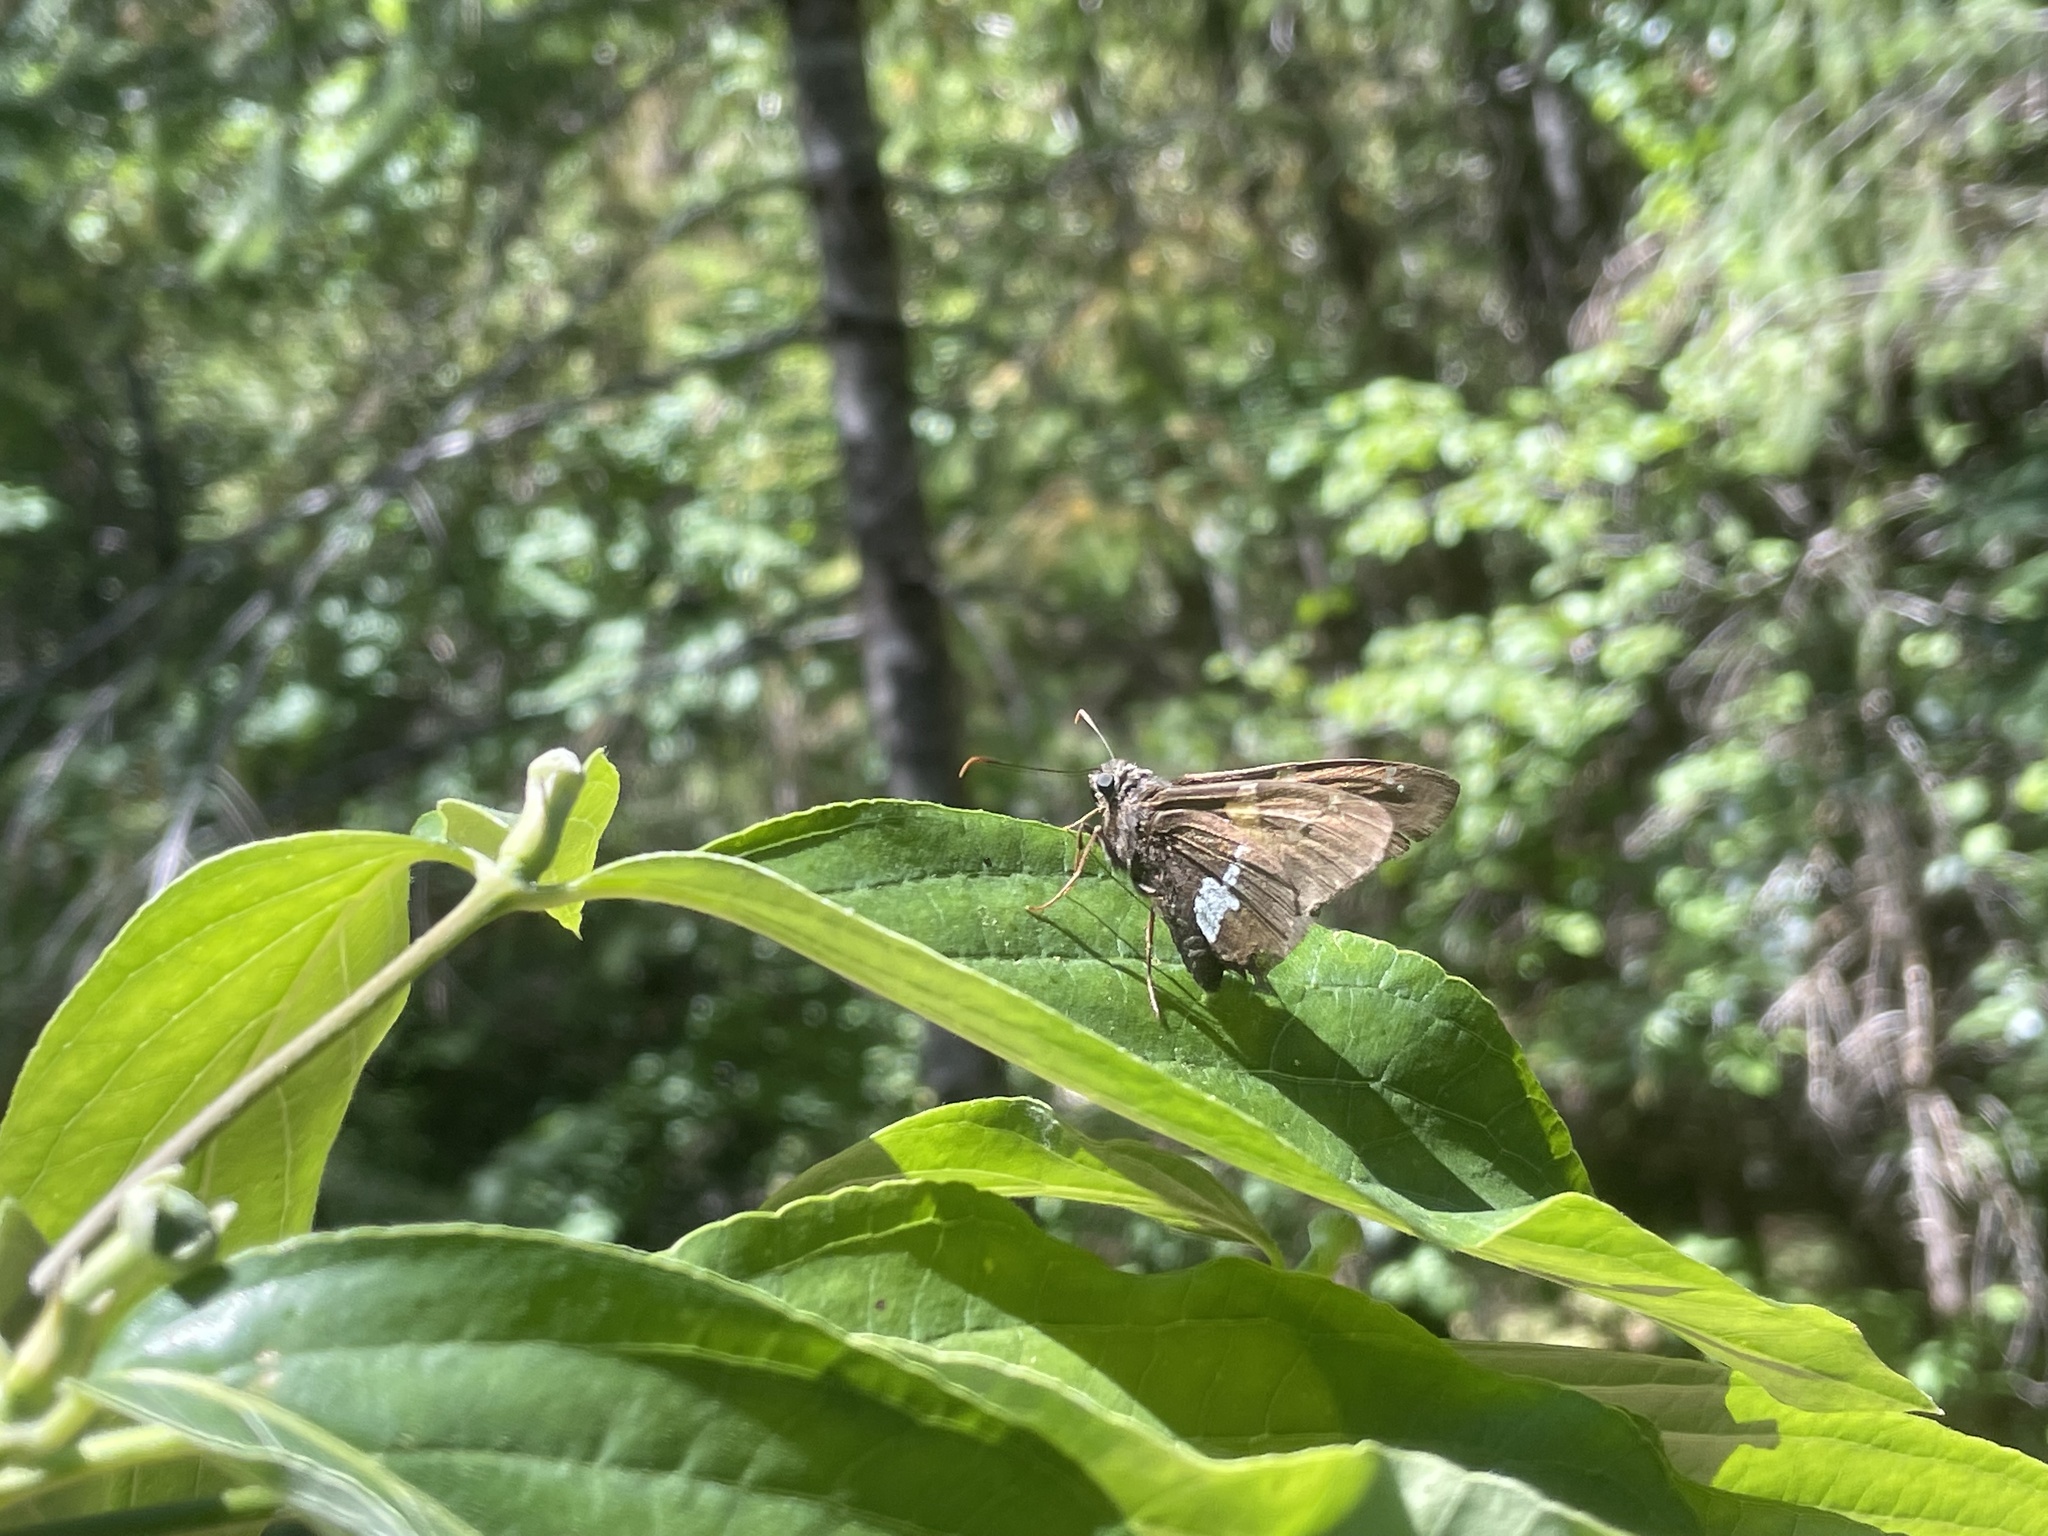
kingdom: Animalia
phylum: Arthropoda
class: Insecta
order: Lepidoptera
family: Hesperiidae
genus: Epargyreus
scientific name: Epargyreus clarus
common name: Silver-spotted skipper
